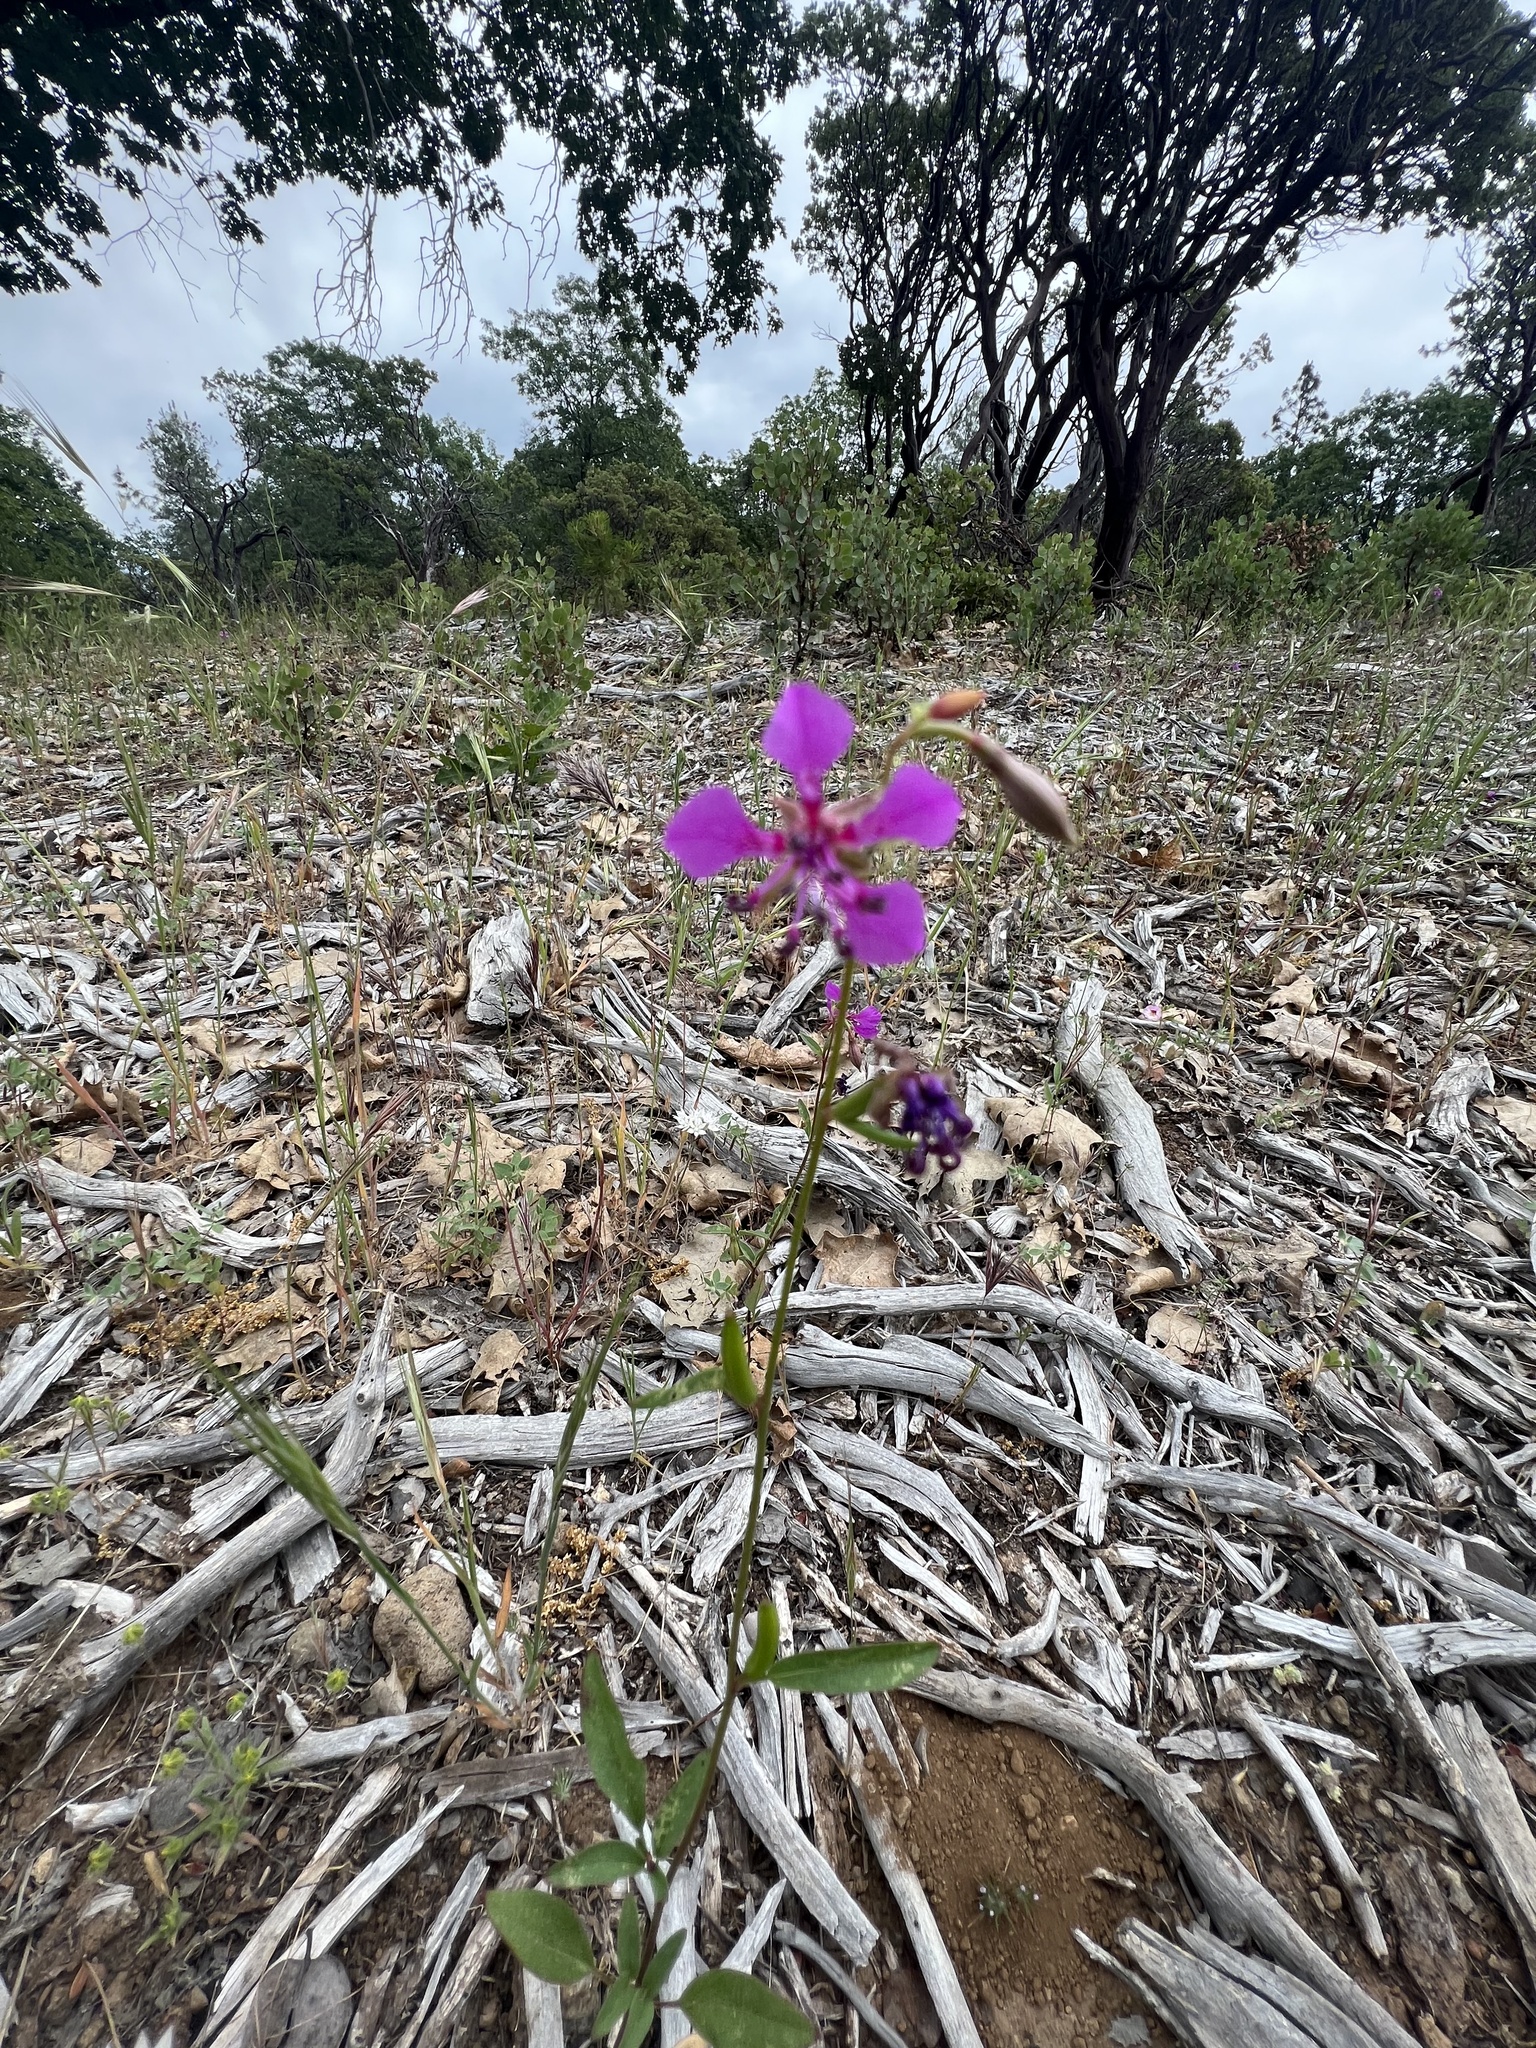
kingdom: Plantae
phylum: Tracheophyta
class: Magnoliopsida
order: Myrtales
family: Onagraceae
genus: Clarkia
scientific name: Clarkia rhomboidea
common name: Broadleaf clarkia
